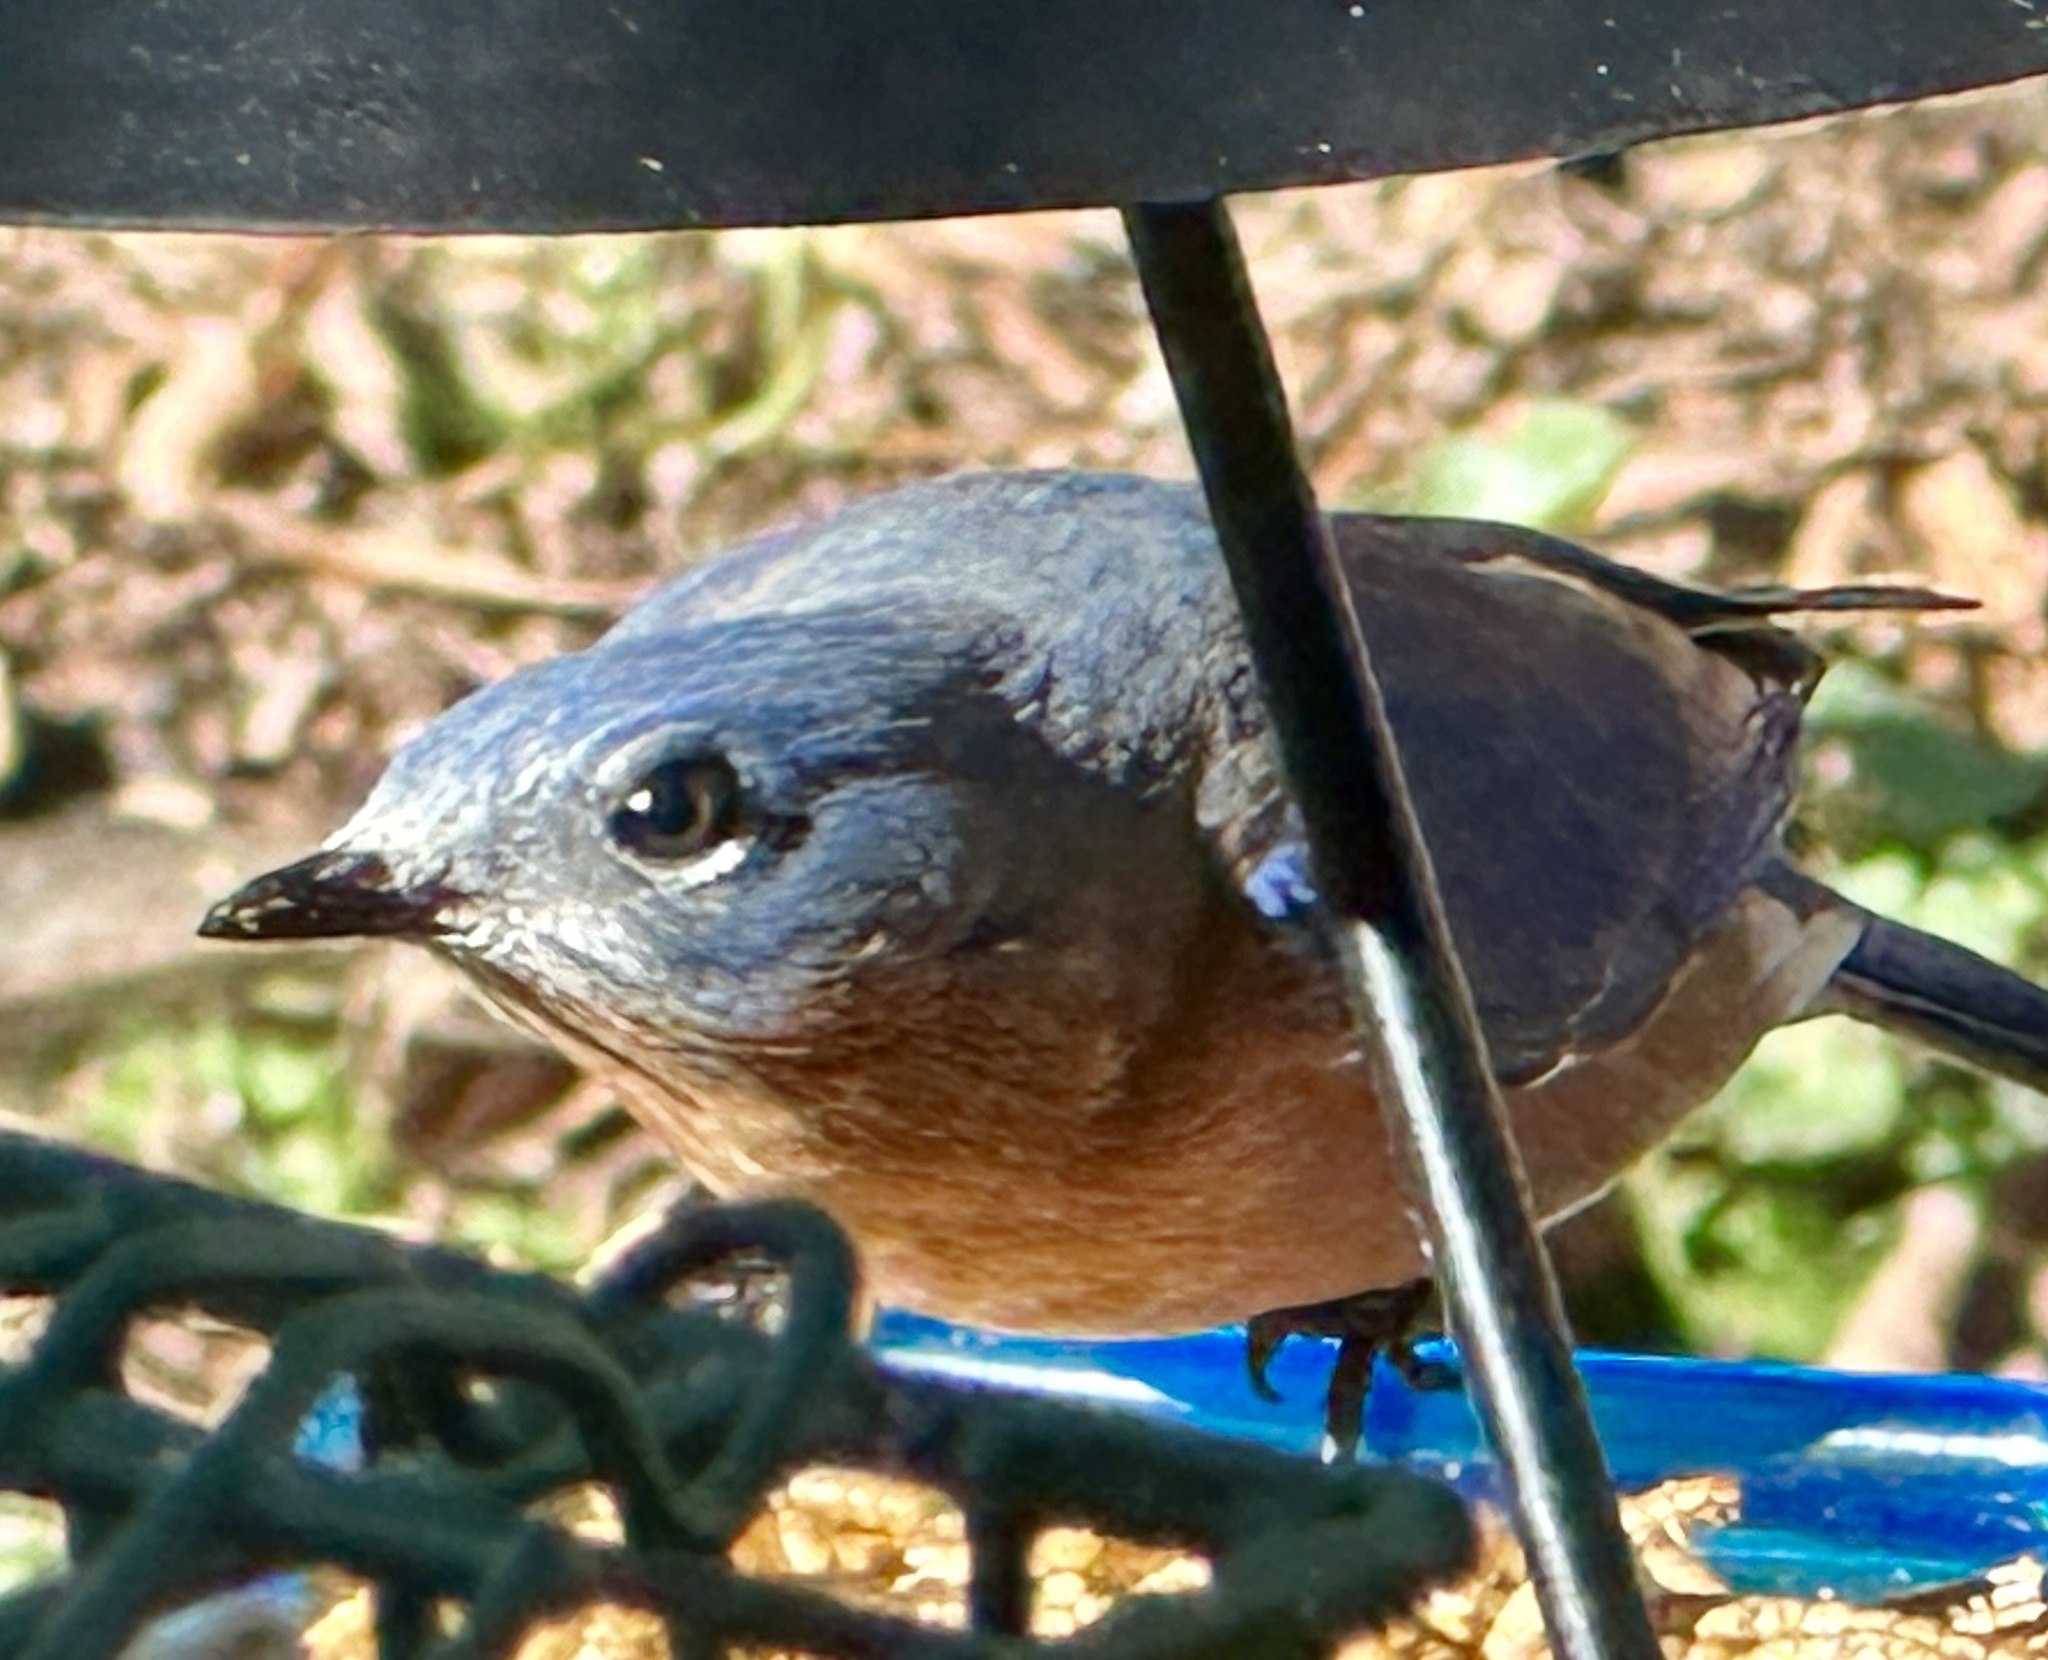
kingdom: Animalia
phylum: Chordata
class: Aves
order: Passeriformes
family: Turdidae
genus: Sialia
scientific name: Sialia sialis
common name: Eastern bluebird
